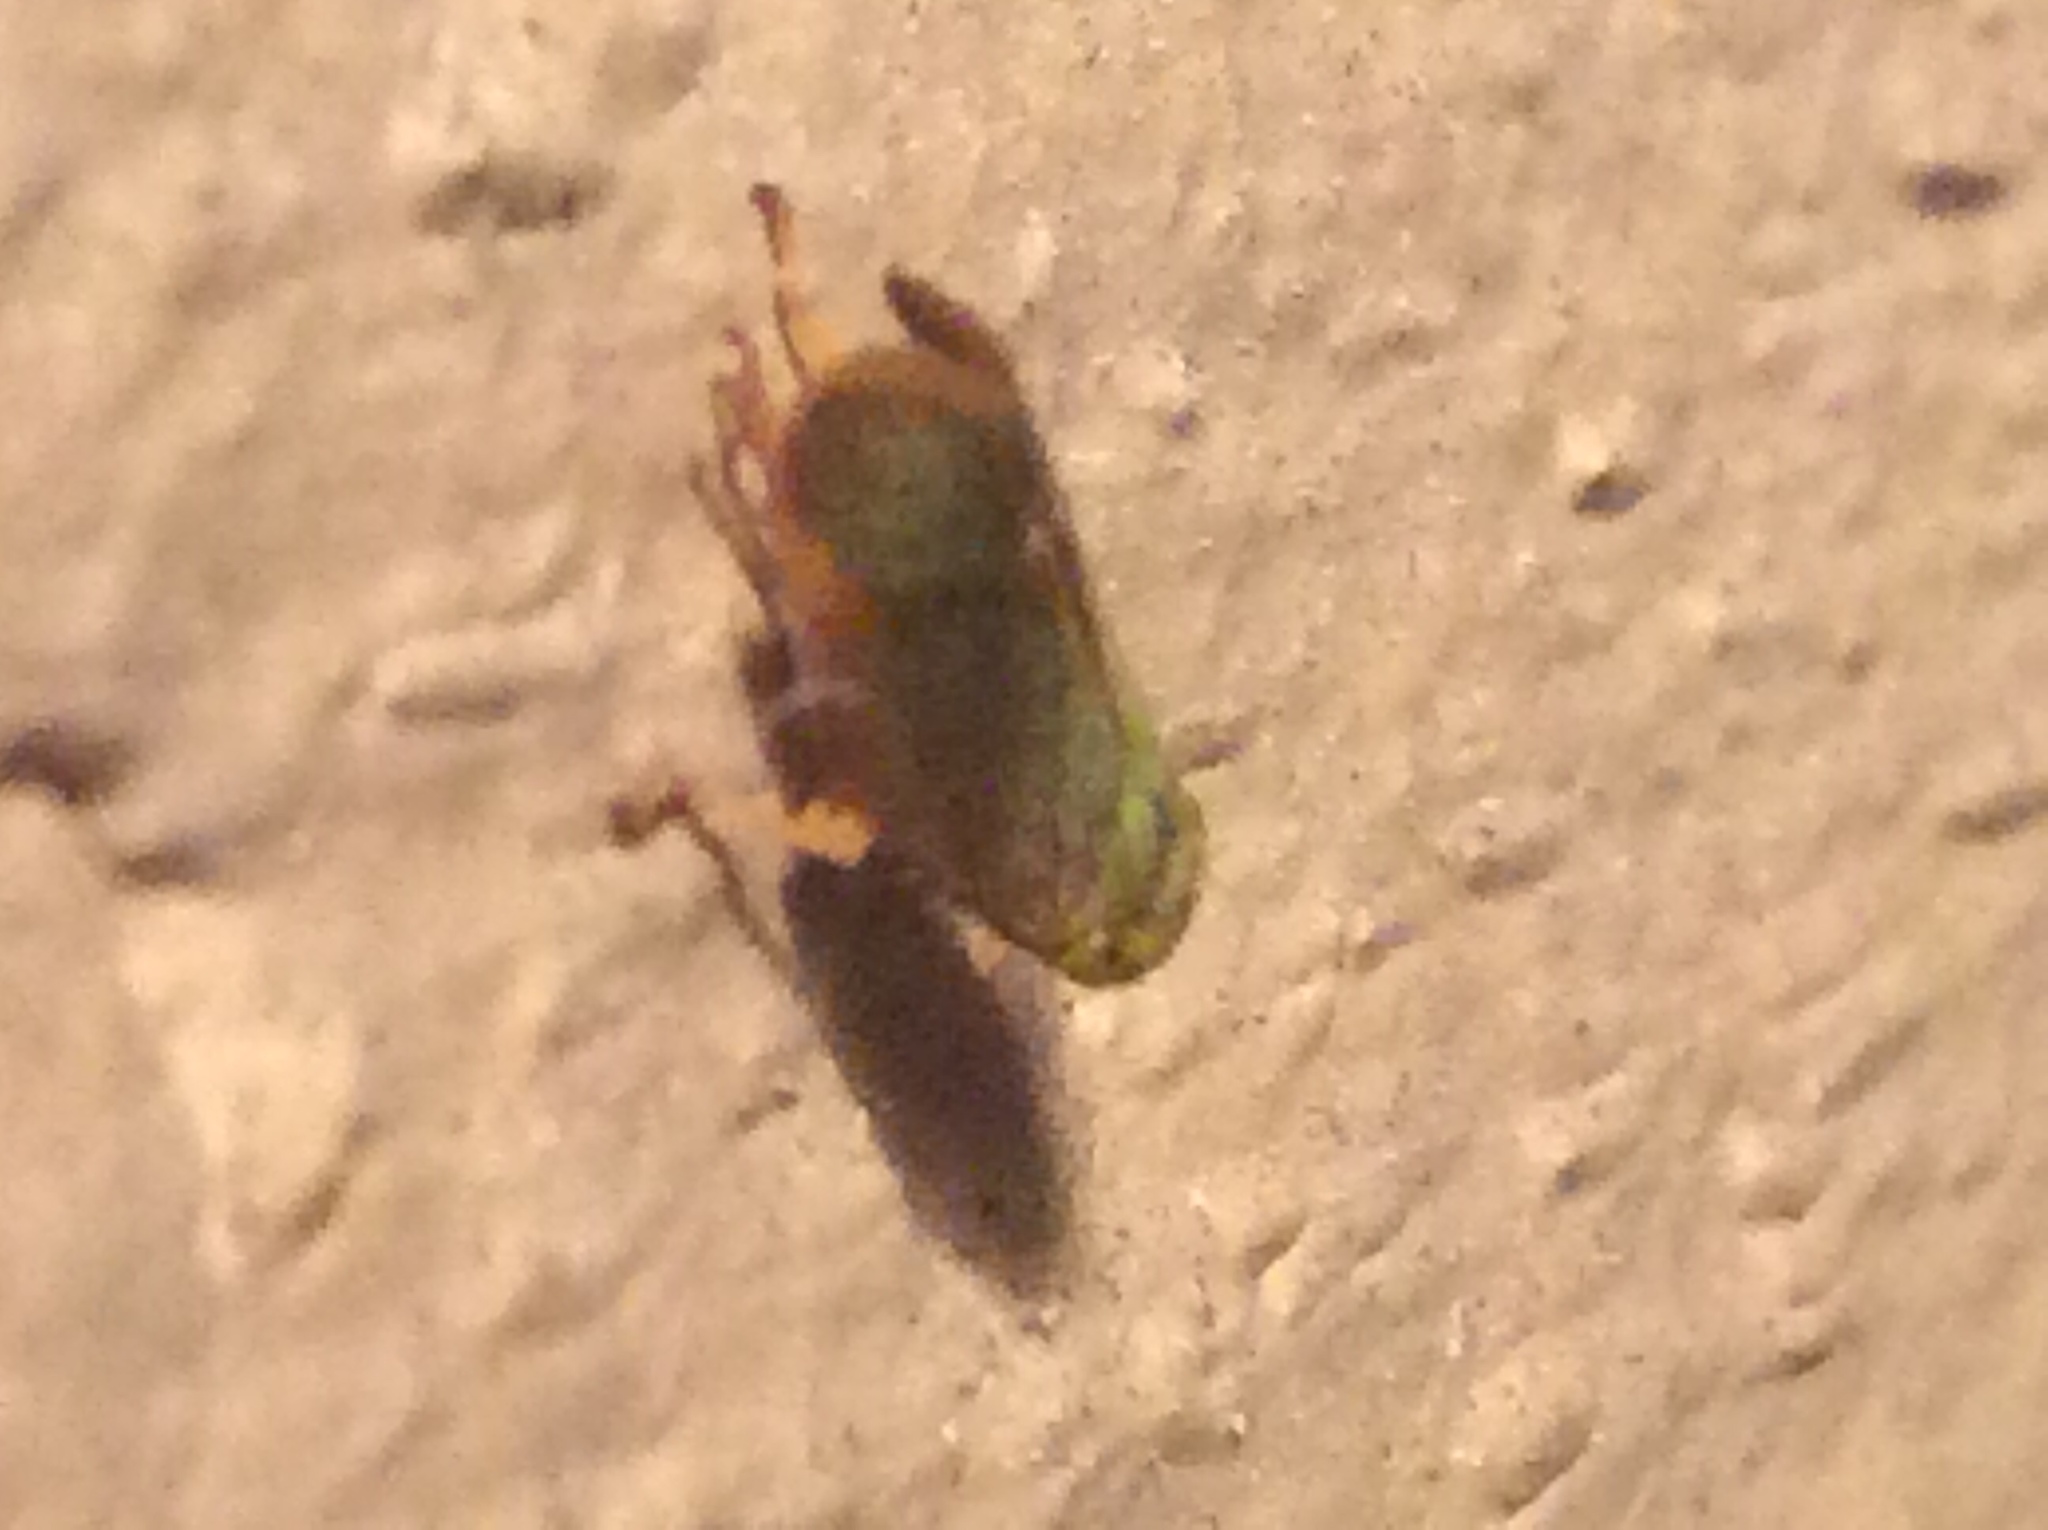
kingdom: Animalia
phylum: Arthropoda
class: Insecta
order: Hemiptera
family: Cicadellidae
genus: Jikradia
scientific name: Jikradia olitoria
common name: Coppery leafhopper
